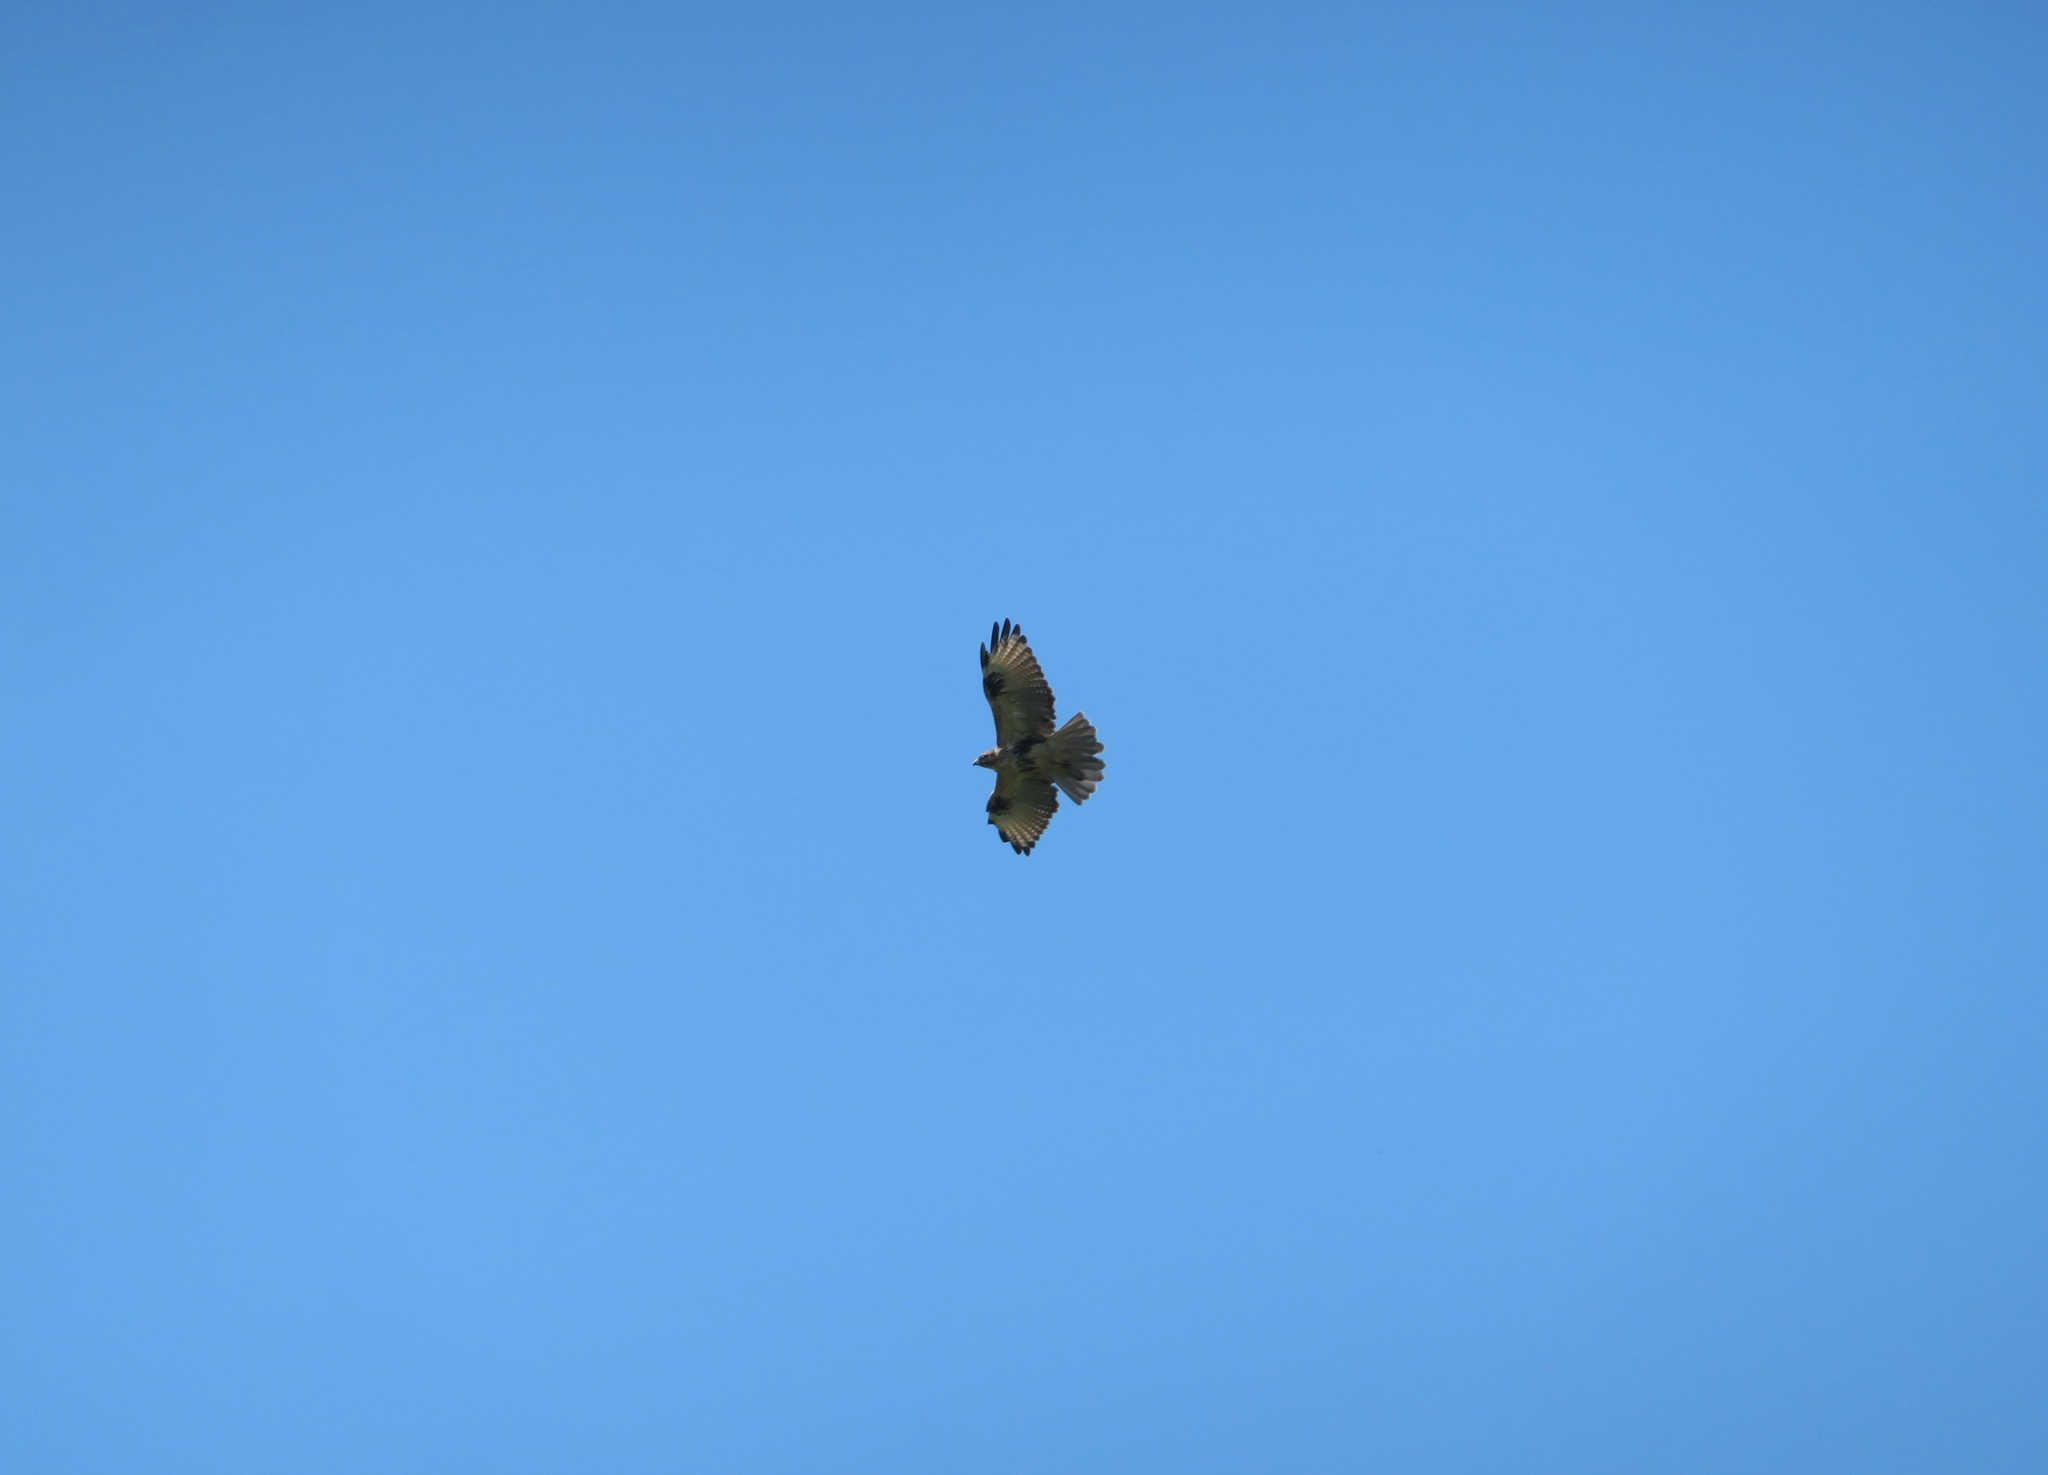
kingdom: Animalia
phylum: Chordata
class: Aves
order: Accipitriformes
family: Accipitridae
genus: Buteo
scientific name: Buteo japonicus
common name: Eastern buzzard
